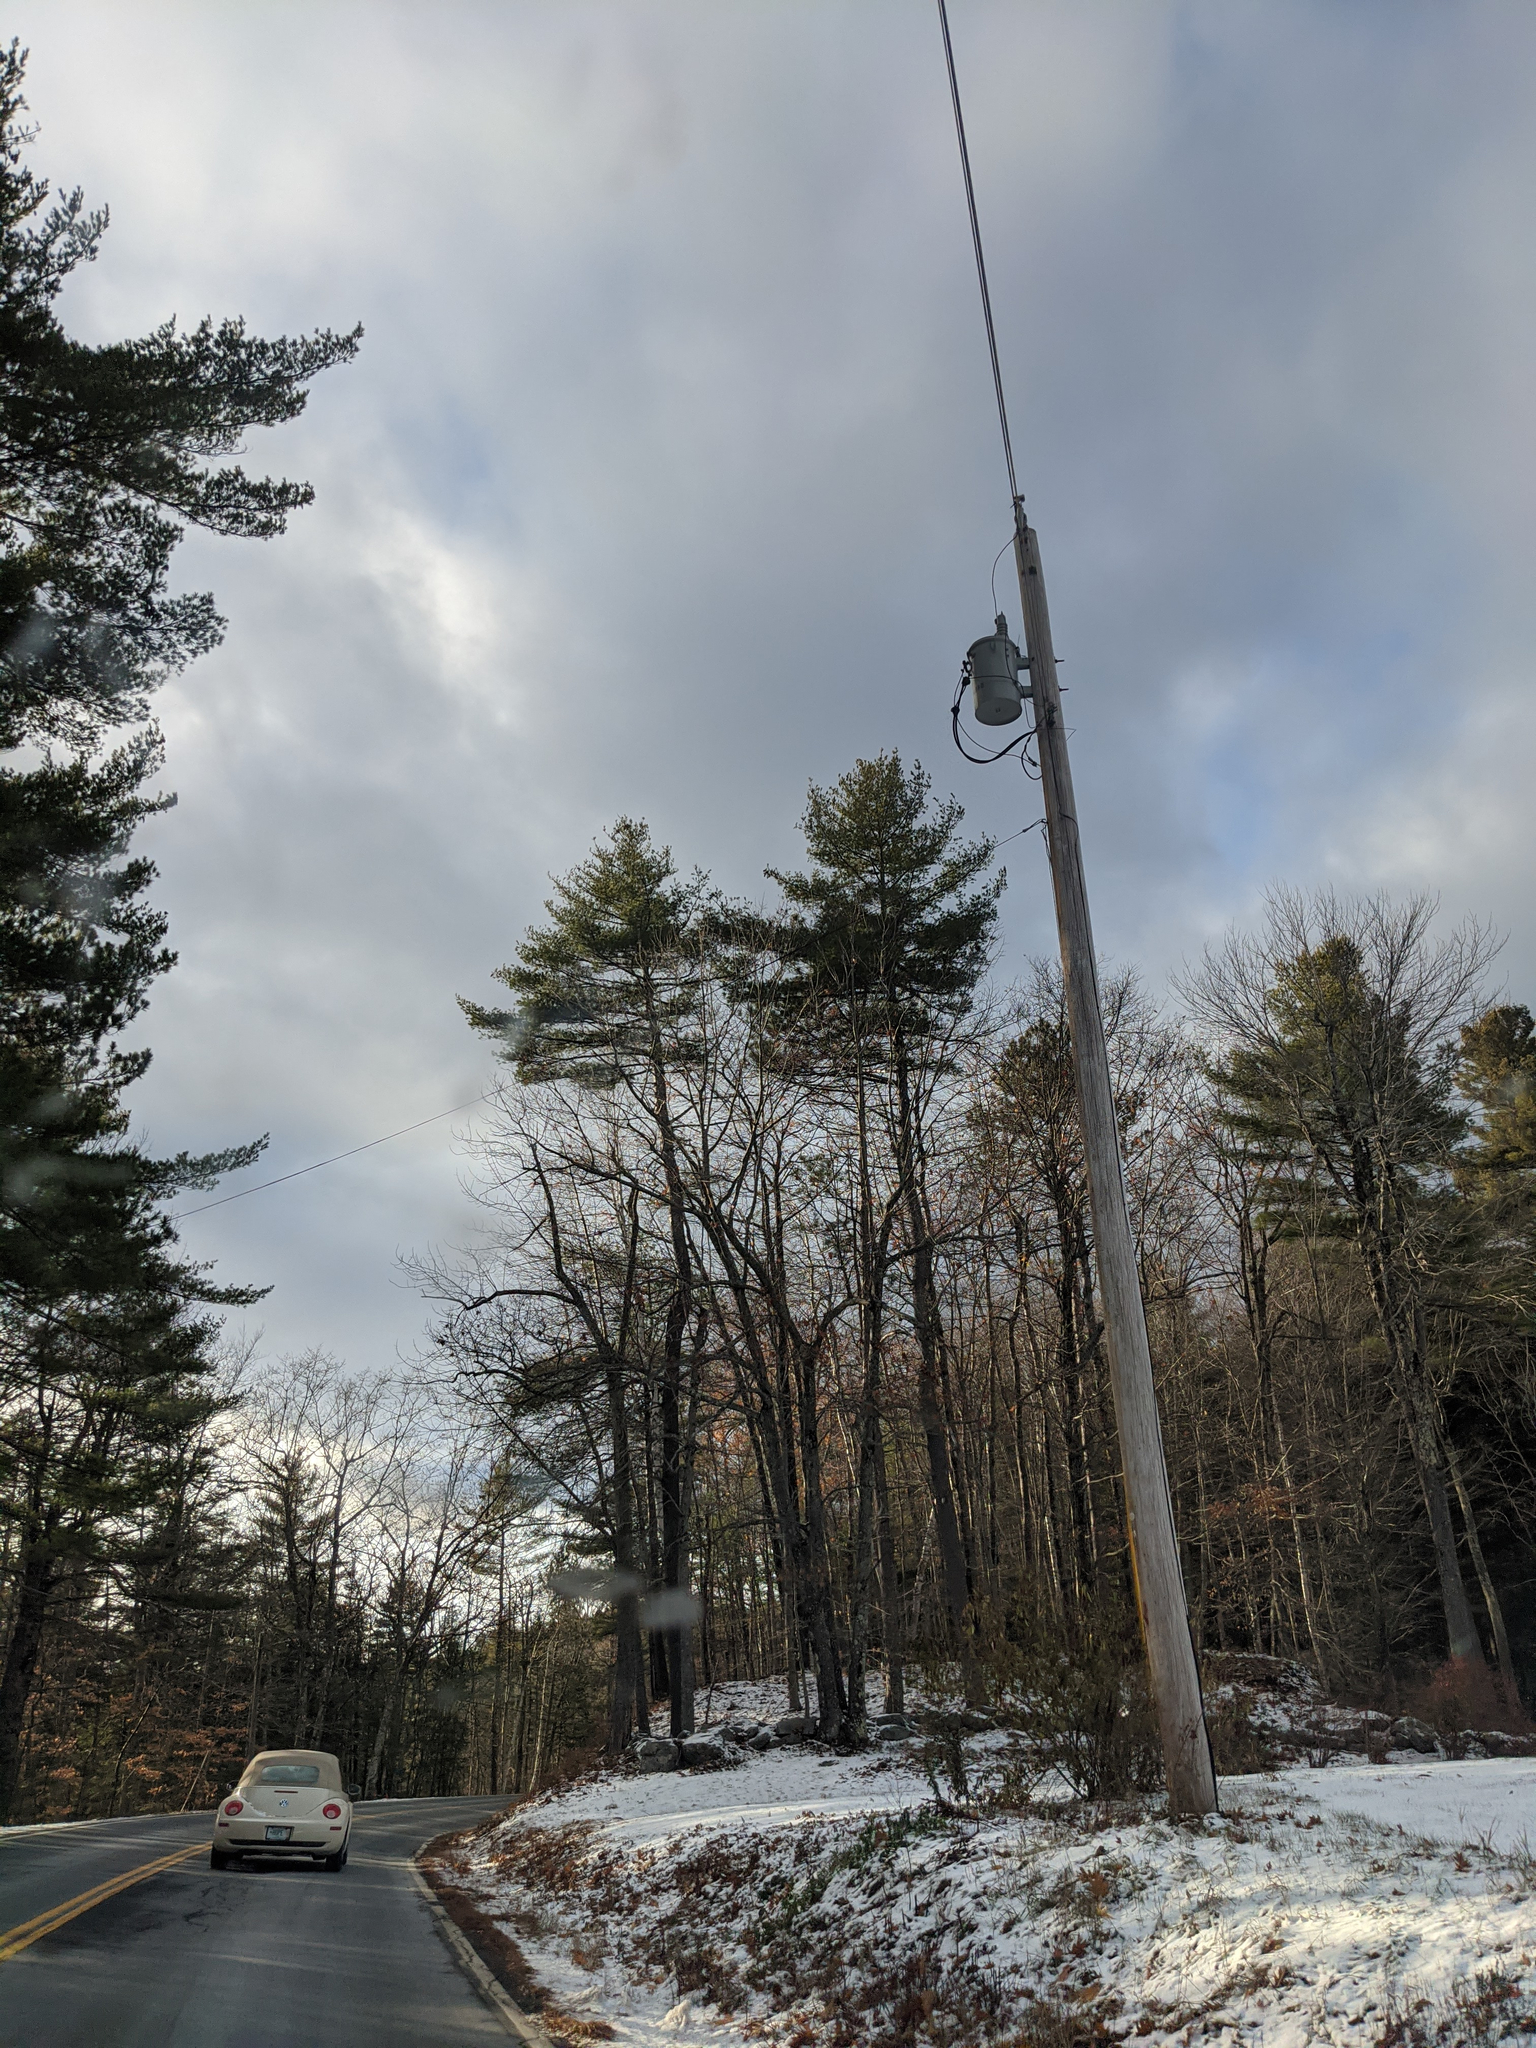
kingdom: Plantae
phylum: Tracheophyta
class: Pinopsida
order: Pinales
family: Pinaceae
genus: Pinus
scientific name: Pinus strobus
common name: Weymouth pine
